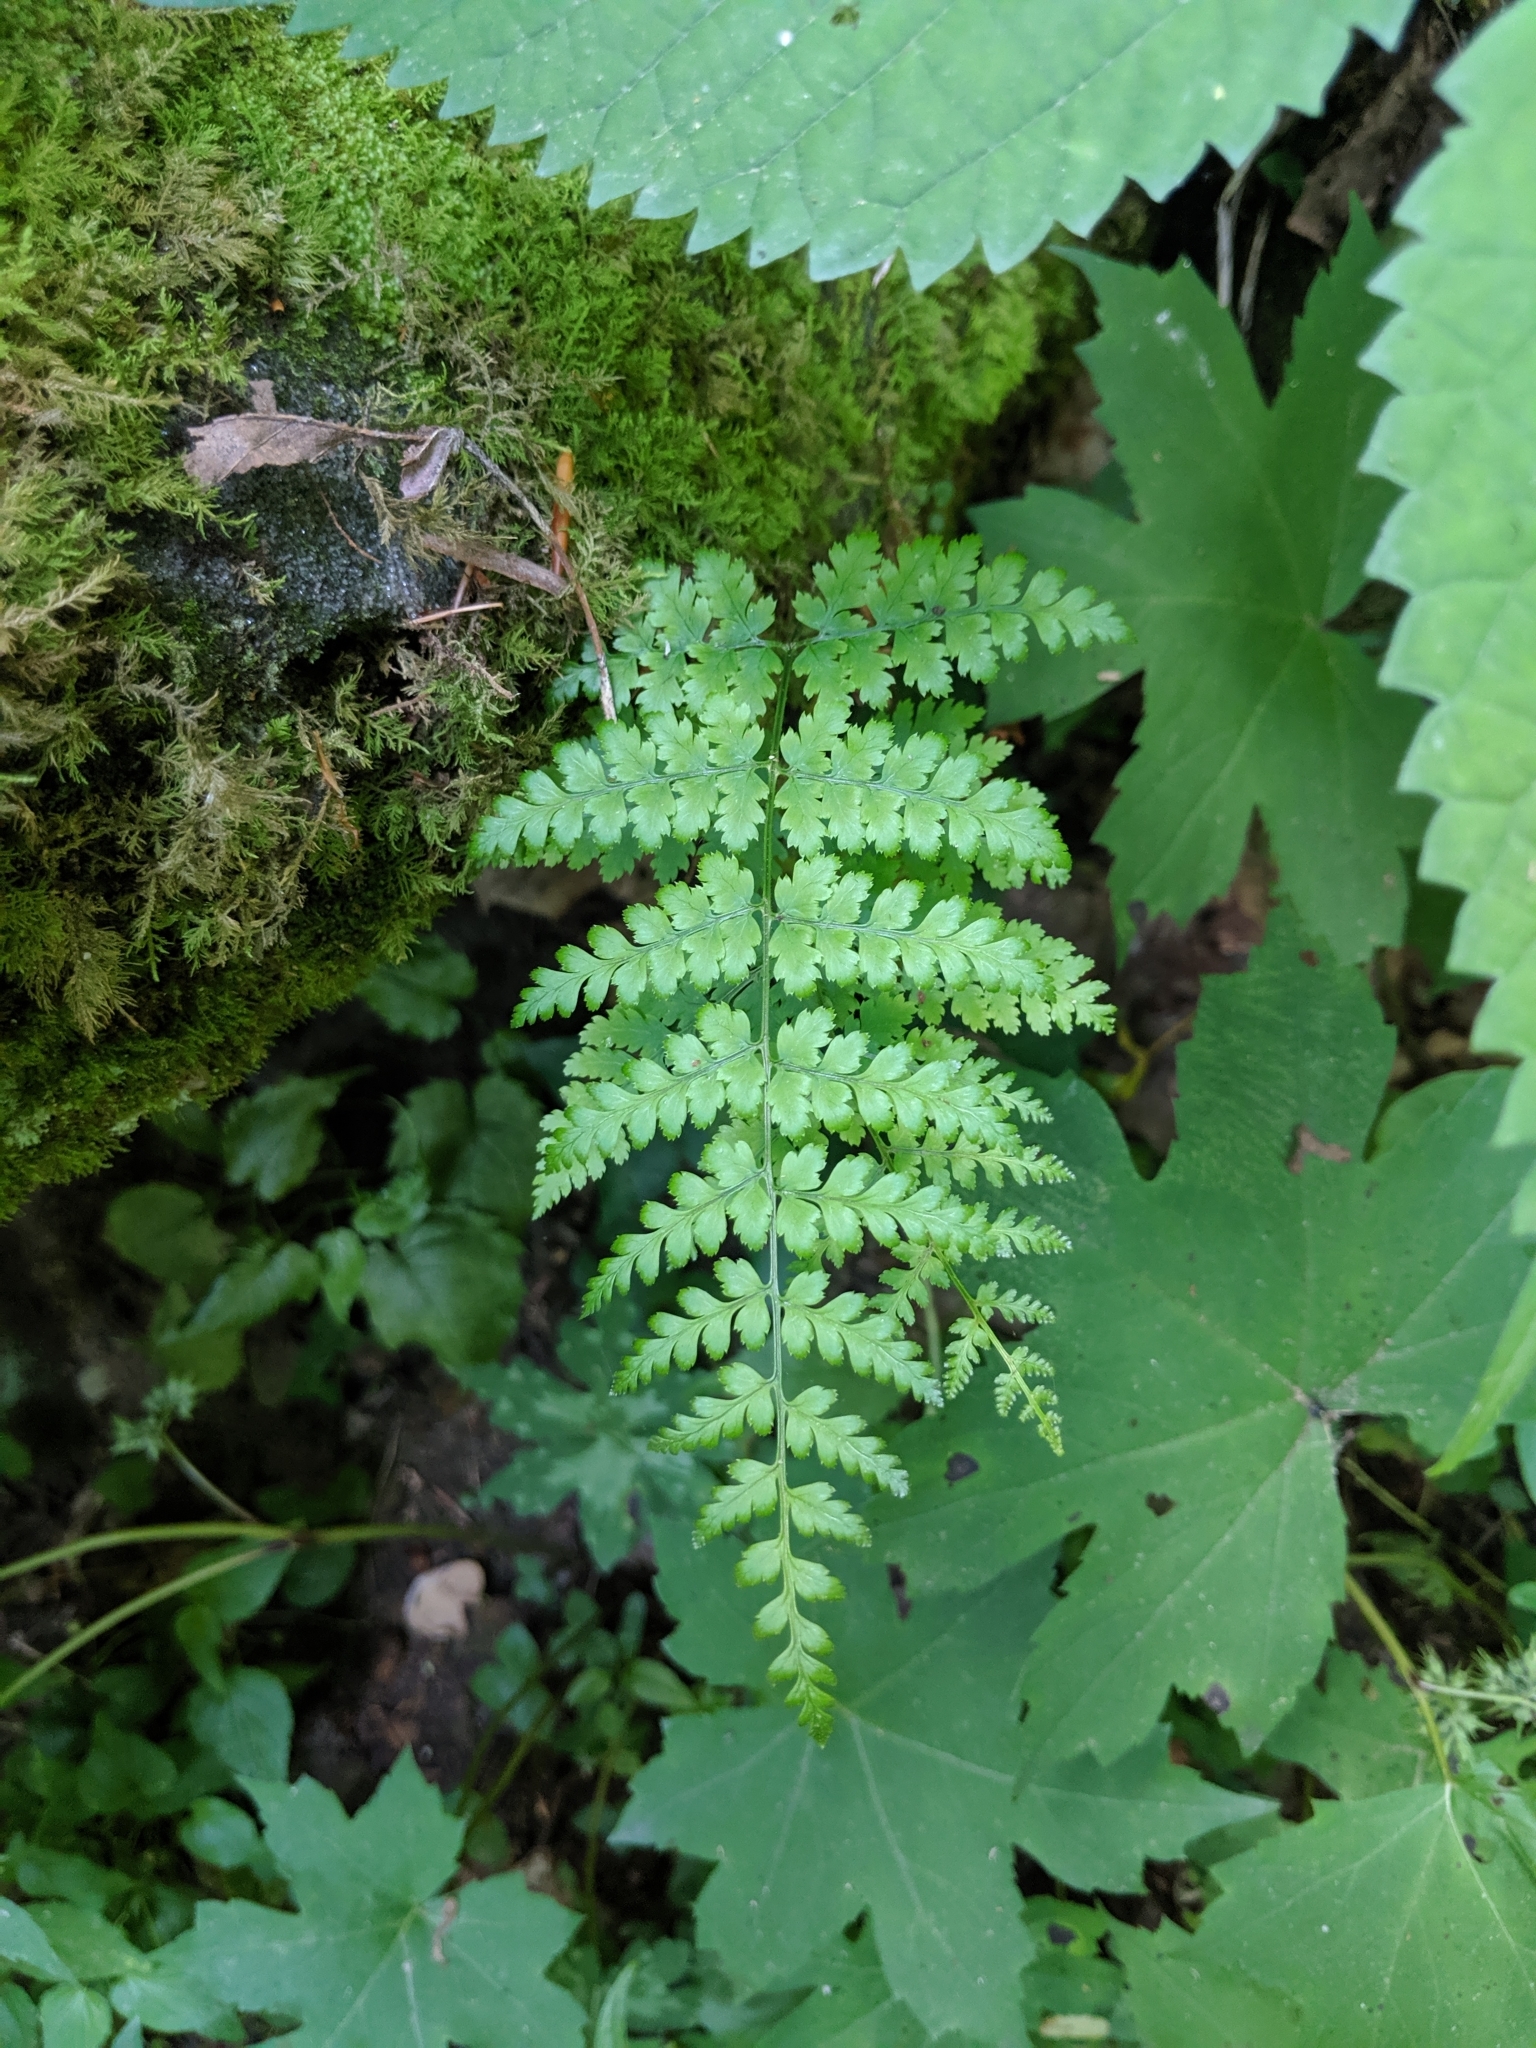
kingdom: Plantae
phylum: Tracheophyta
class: Polypodiopsida
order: Polypodiales
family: Dryopteridaceae
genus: Dryopteris
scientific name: Dryopteris intermedia
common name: Evergreen wood fern
